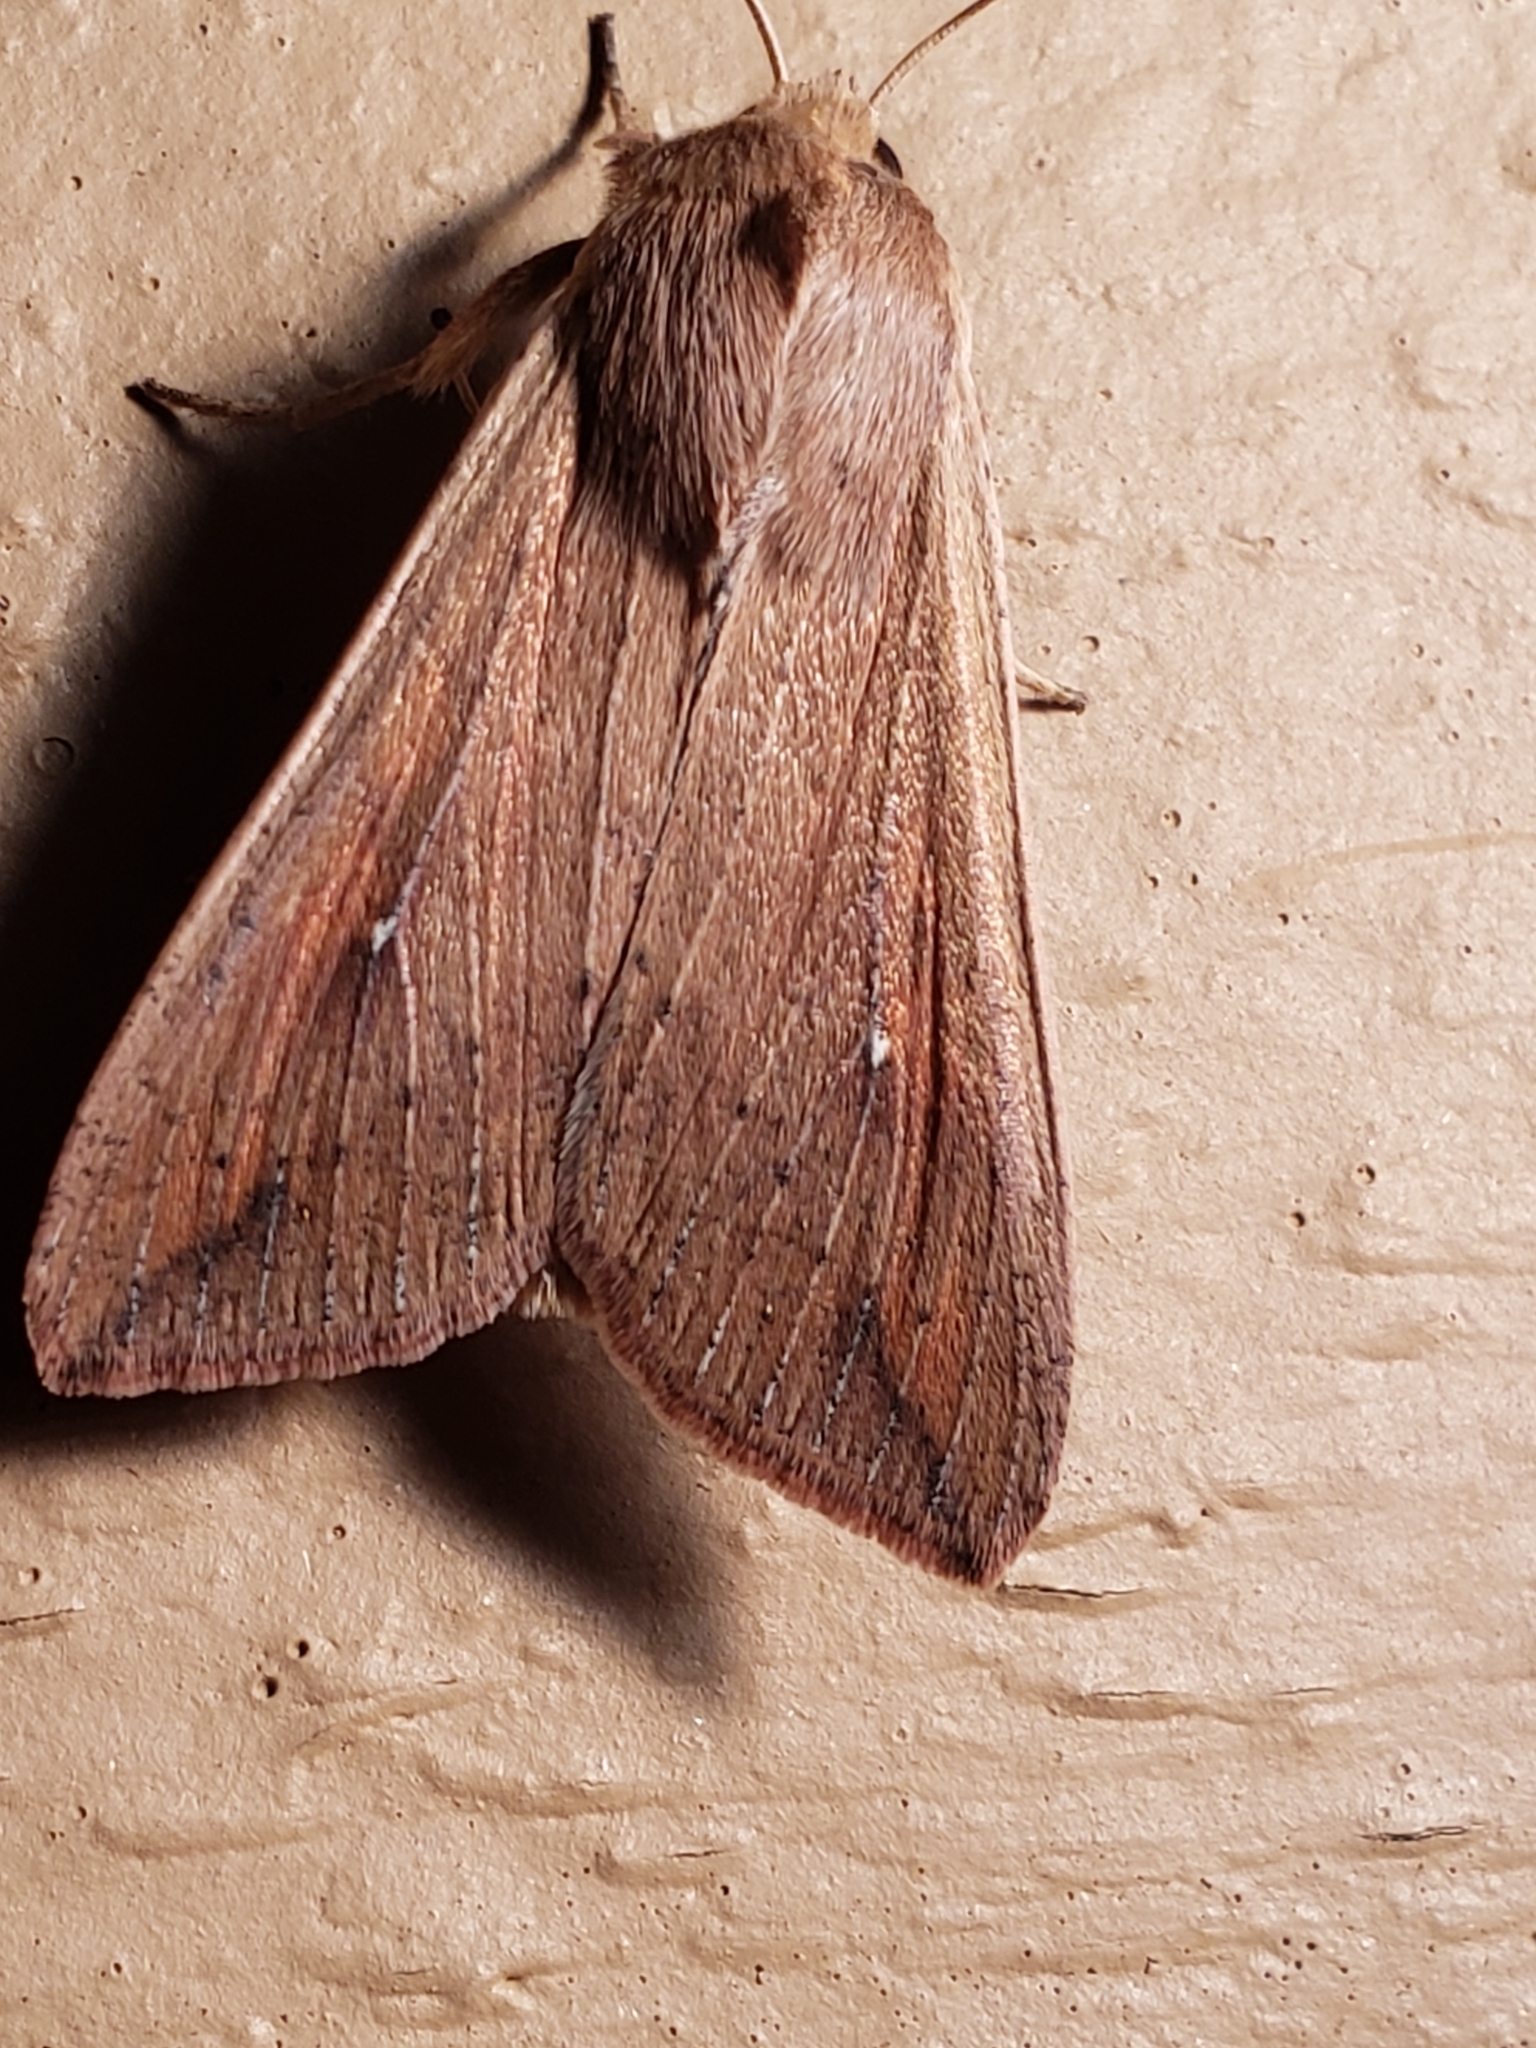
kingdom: Animalia
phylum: Arthropoda
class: Insecta
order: Lepidoptera
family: Noctuidae
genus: Mythimna
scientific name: Mythimna unipuncta
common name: White-speck
